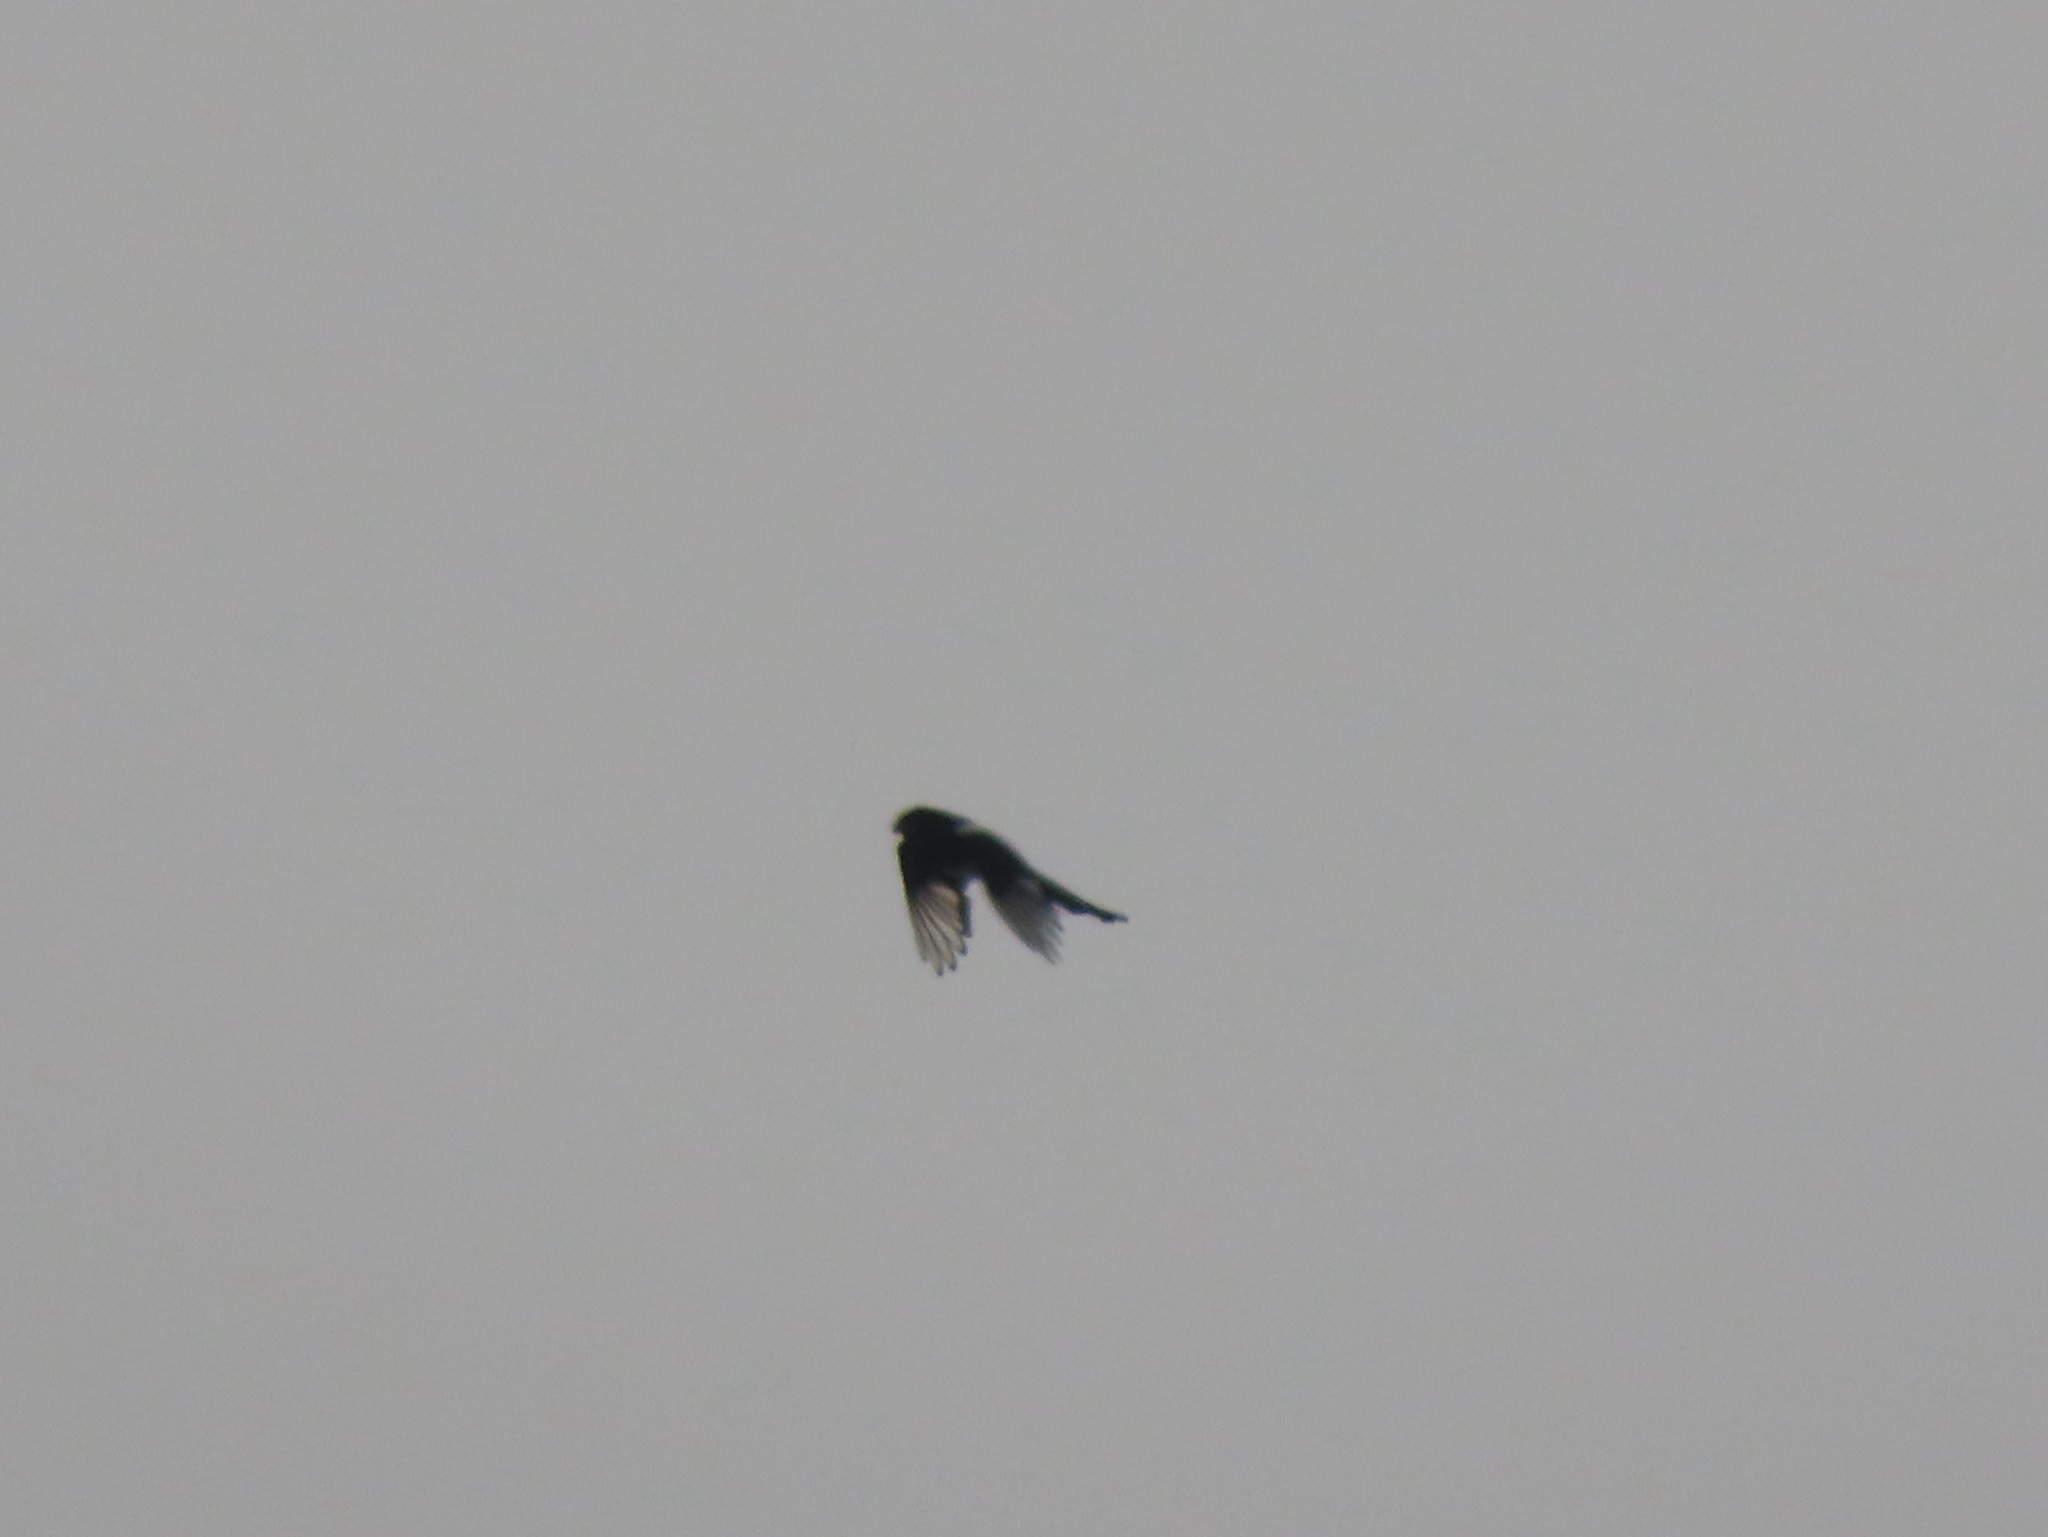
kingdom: Animalia
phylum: Chordata
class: Aves
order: Passeriformes
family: Corvidae
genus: Pica
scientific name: Pica hudsonia
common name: Black-billed magpie
